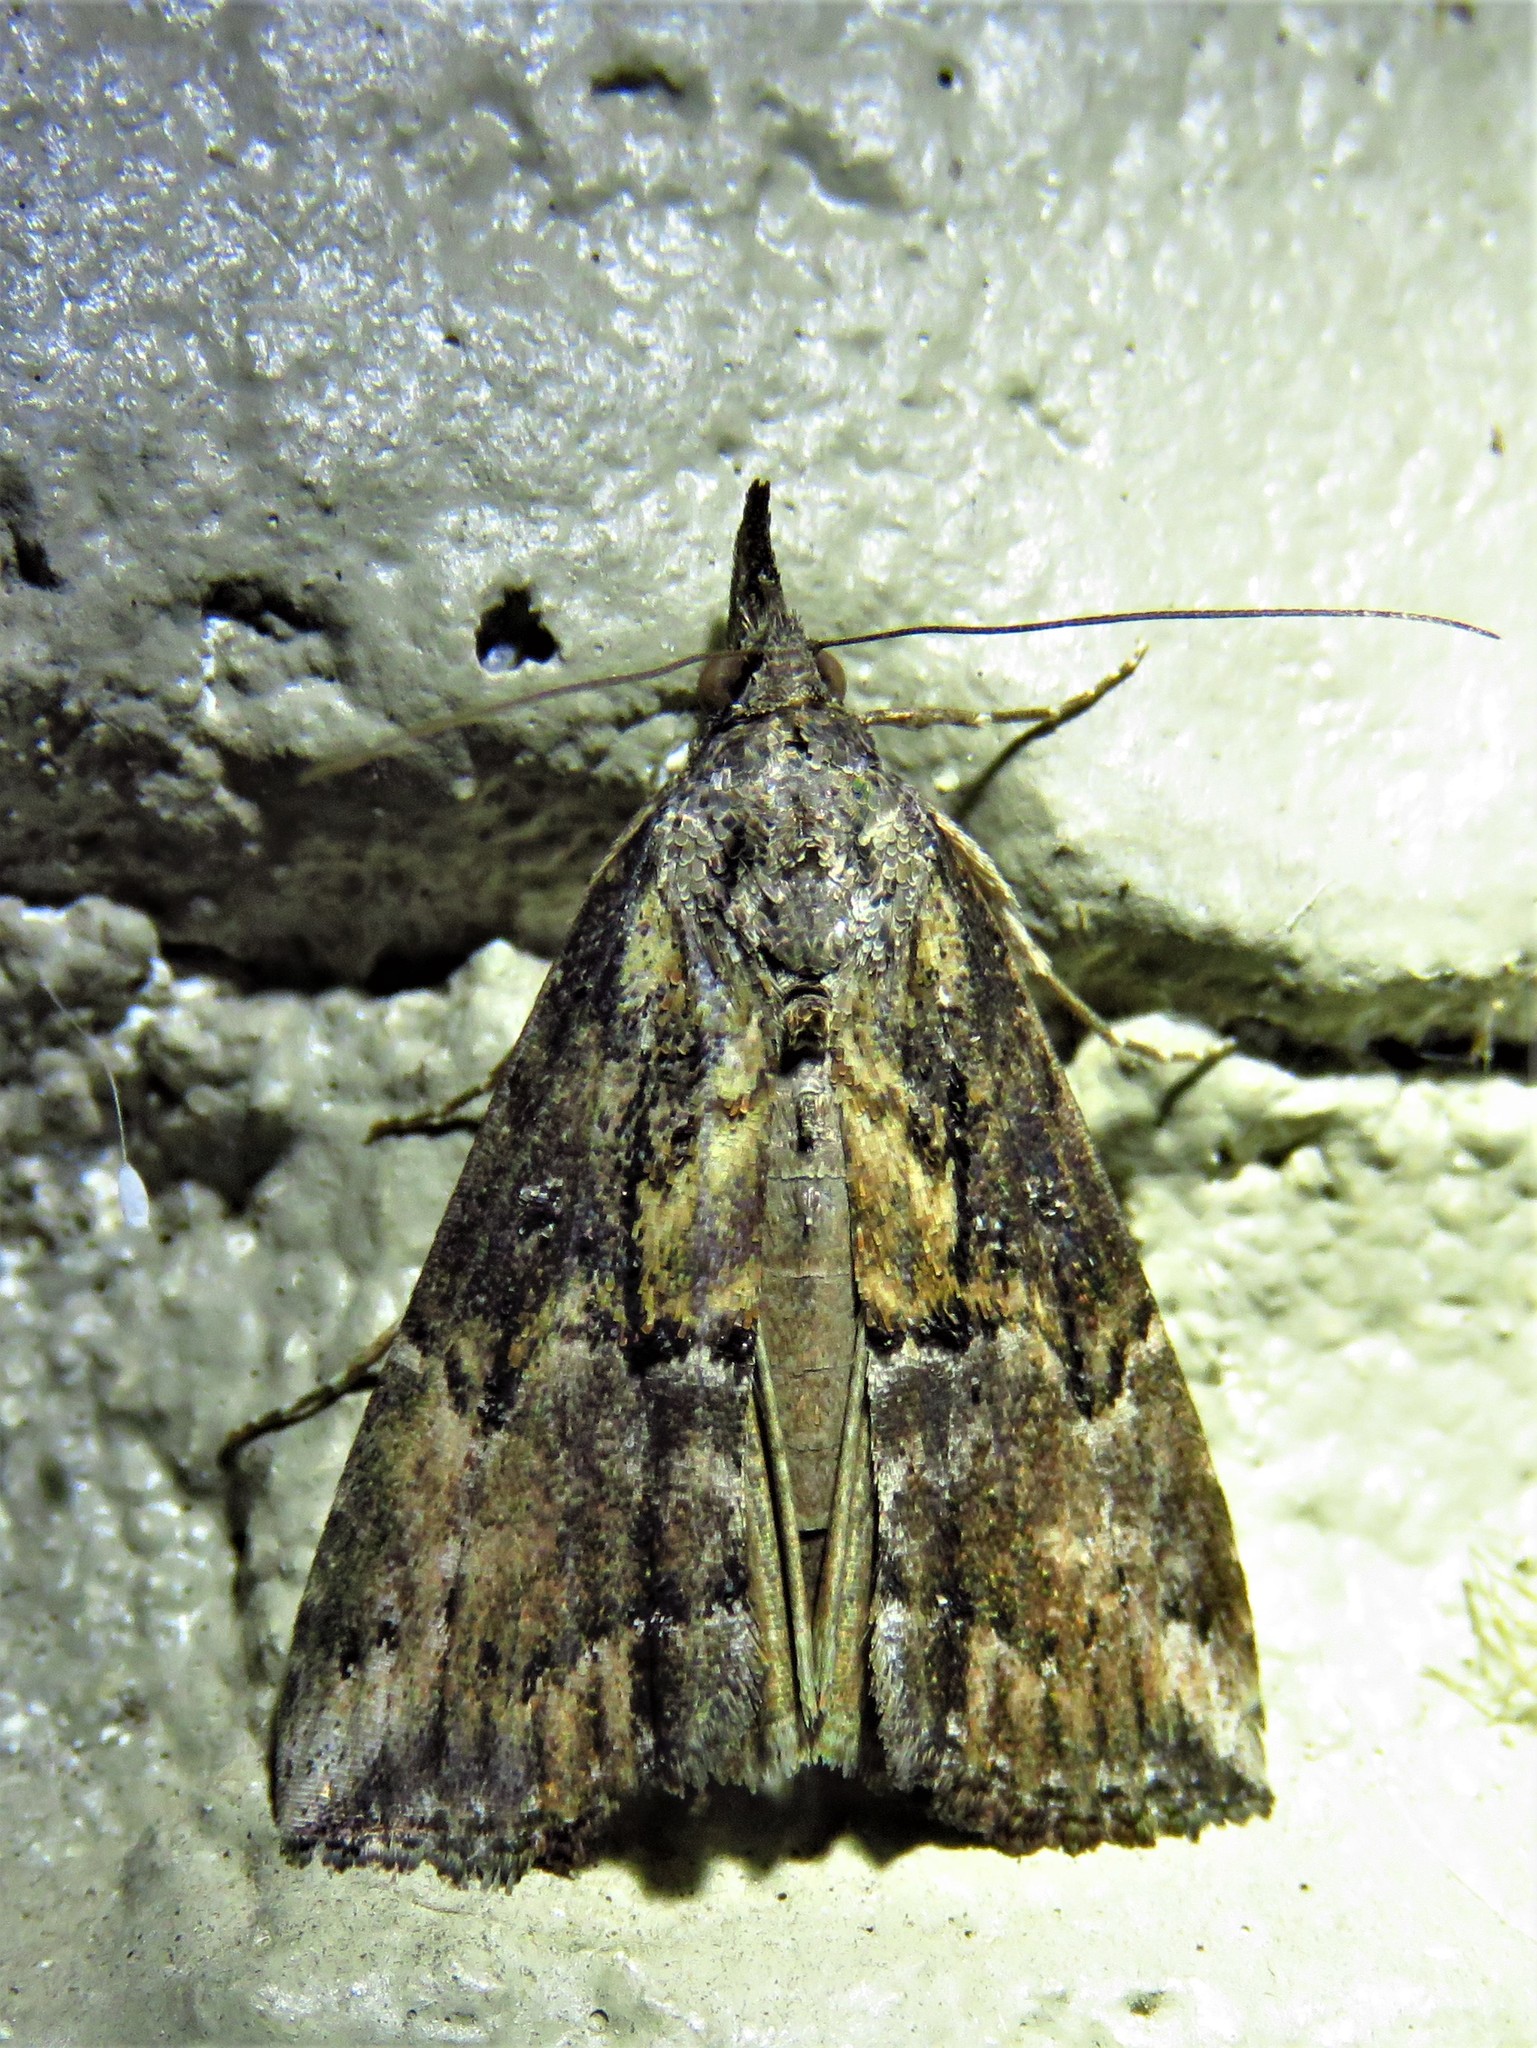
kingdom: Animalia
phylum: Arthropoda
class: Insecta
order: Lepidoptera
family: Erebidae
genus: Hypena
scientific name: Hypena scabra
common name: Green cloverworm
